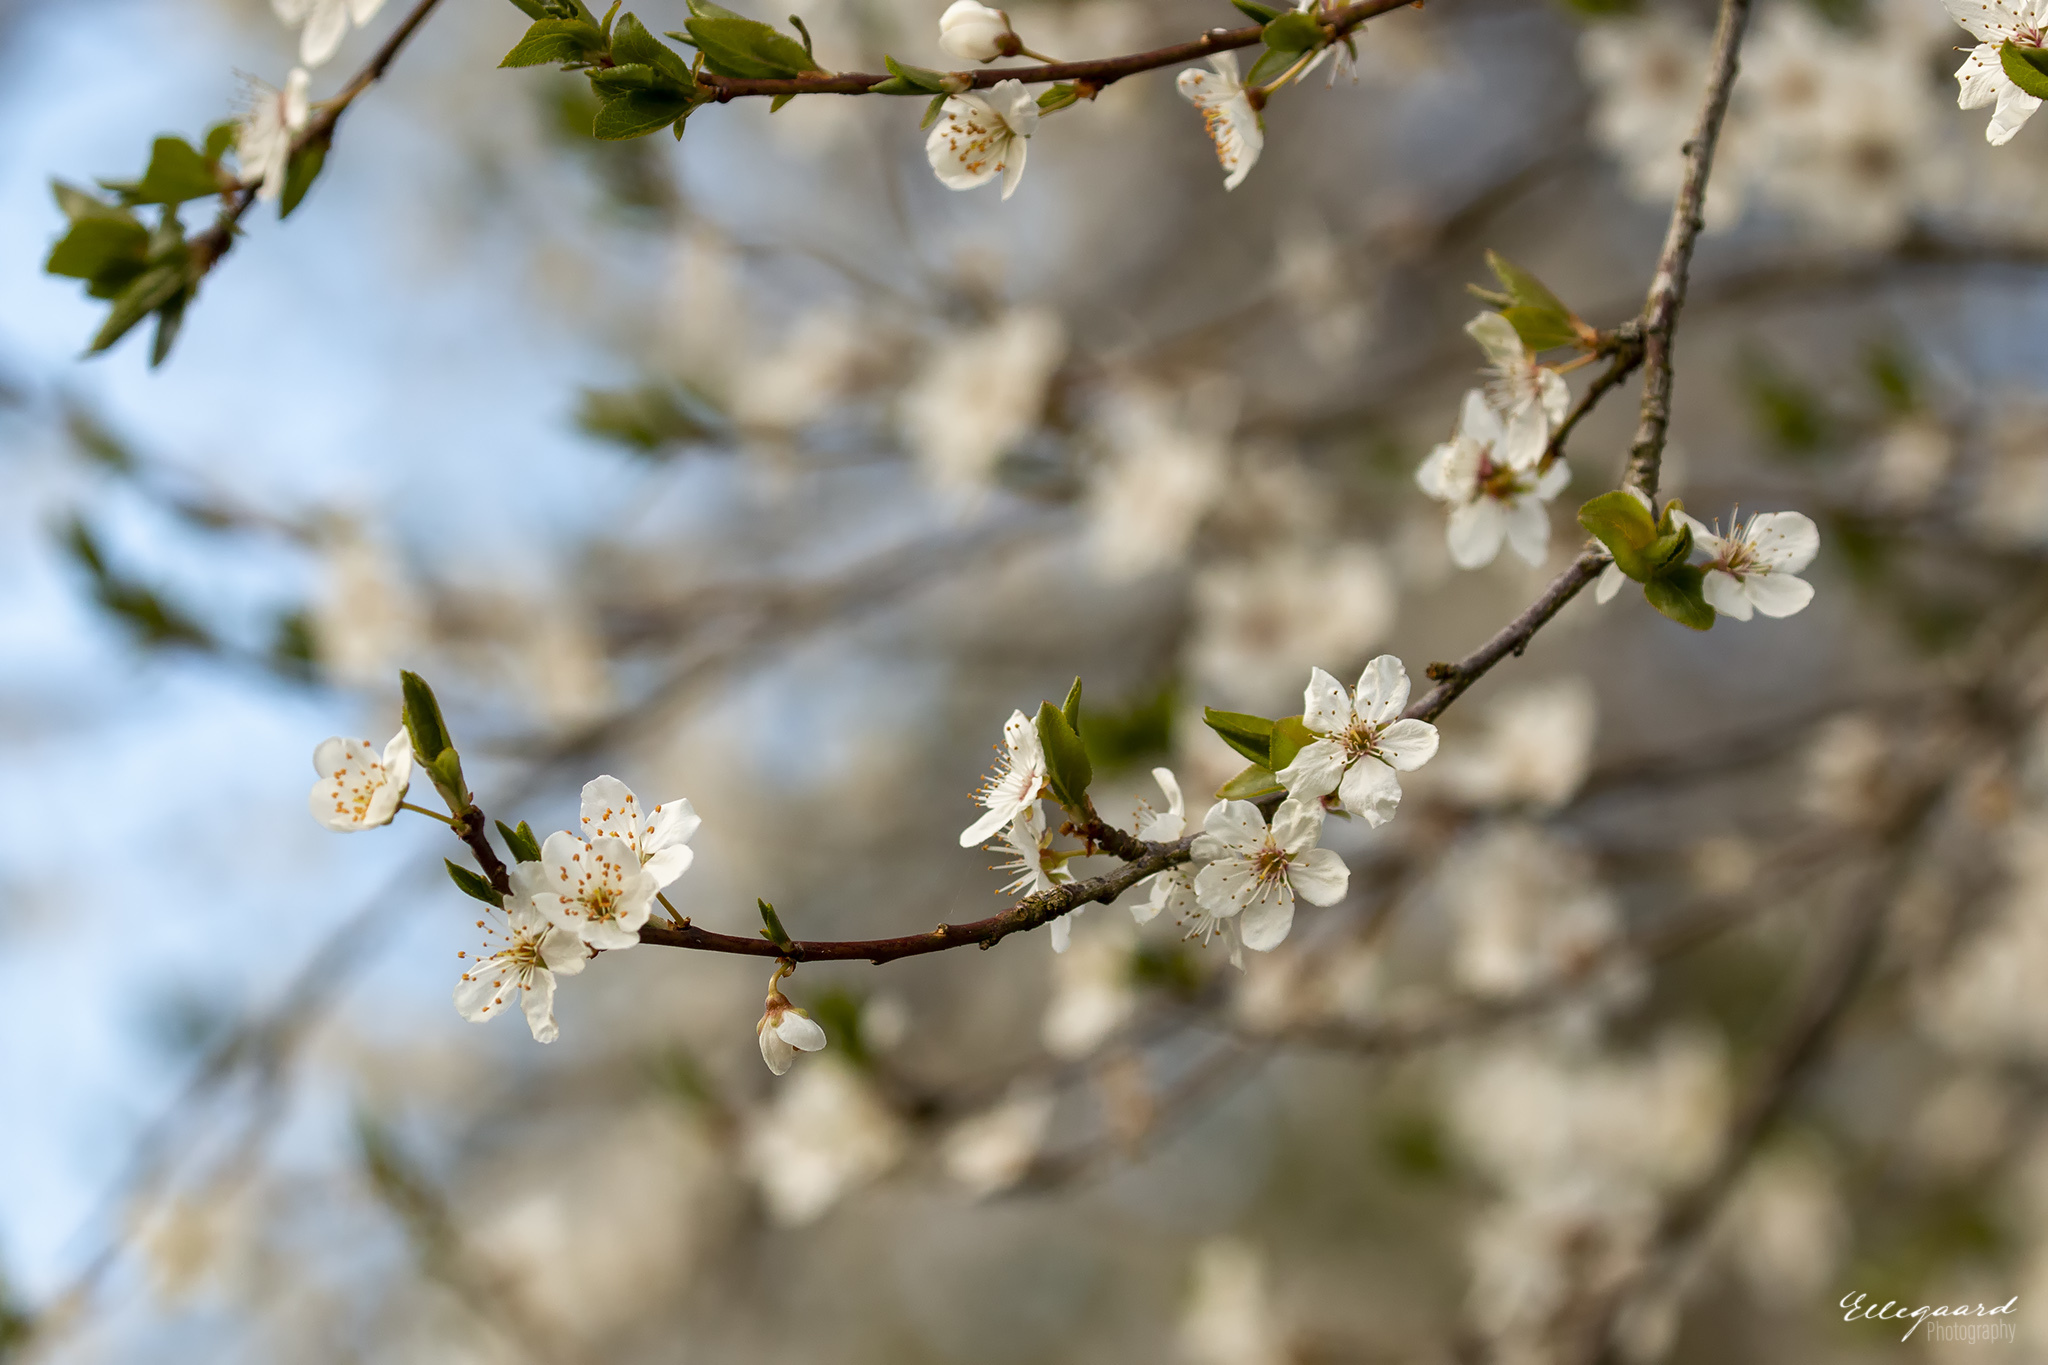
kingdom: Plantae
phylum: Tracheophyta
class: Magnoliopsida
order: Rosales
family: Rosaceae
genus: Prunus
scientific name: Prunus cerasifera
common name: Cherry plum
